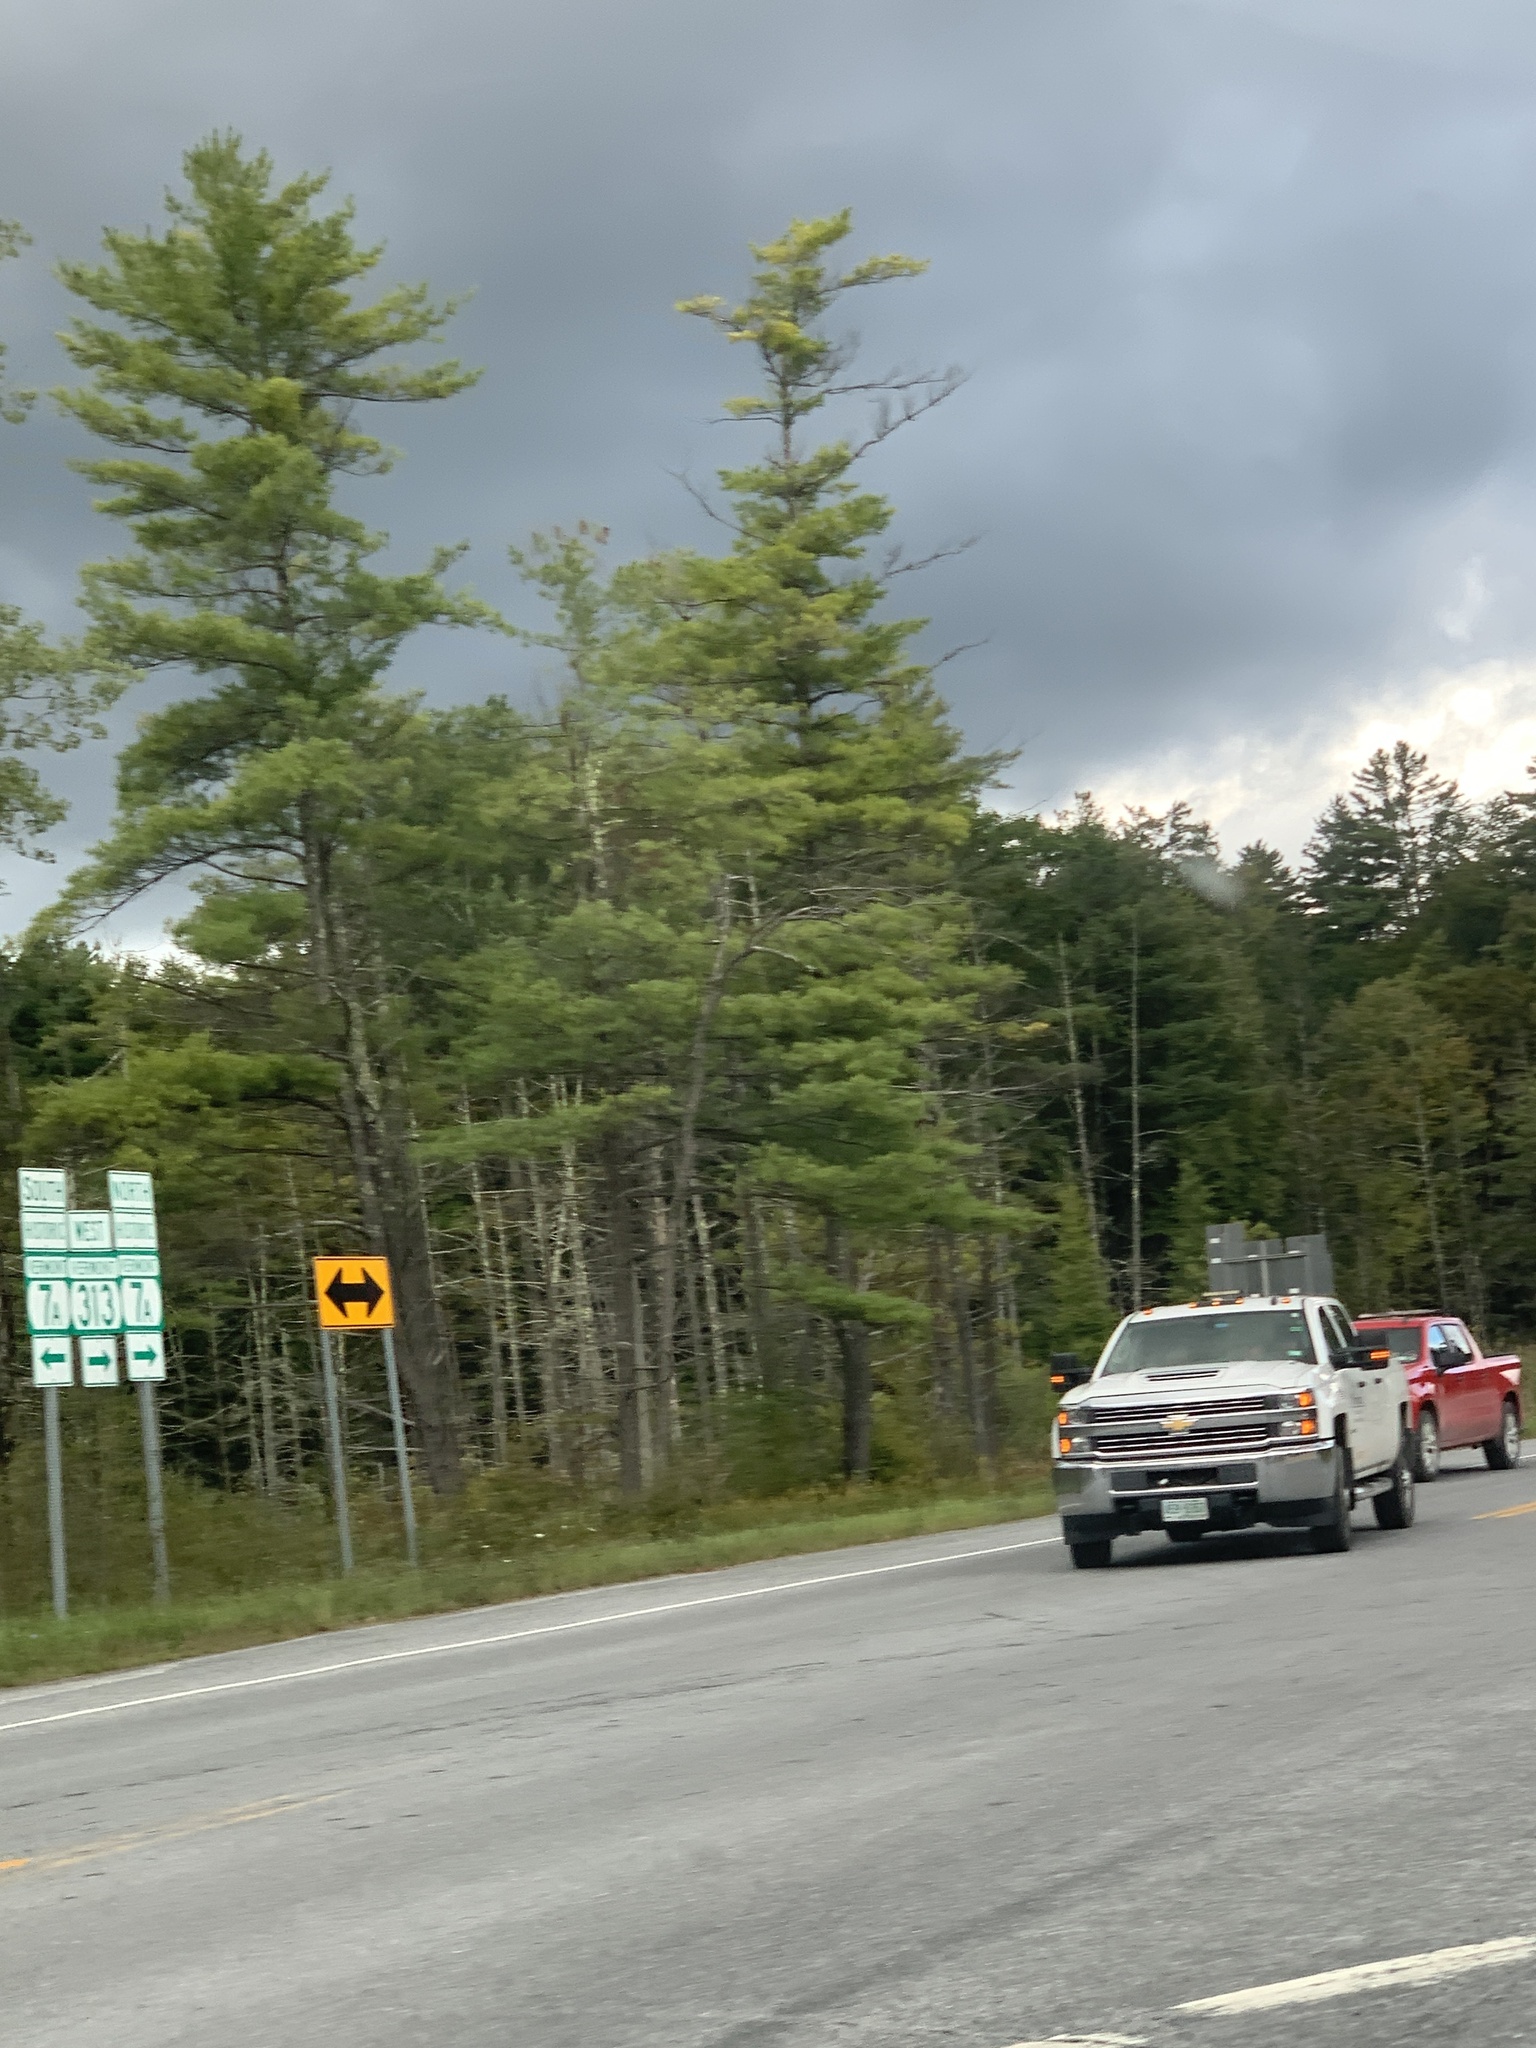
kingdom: Plantae
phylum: Tracheophyta
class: Pinopsida
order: Pinales
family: Pinaceae
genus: Pinus
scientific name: Pinus strobus
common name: Weymouth pine
